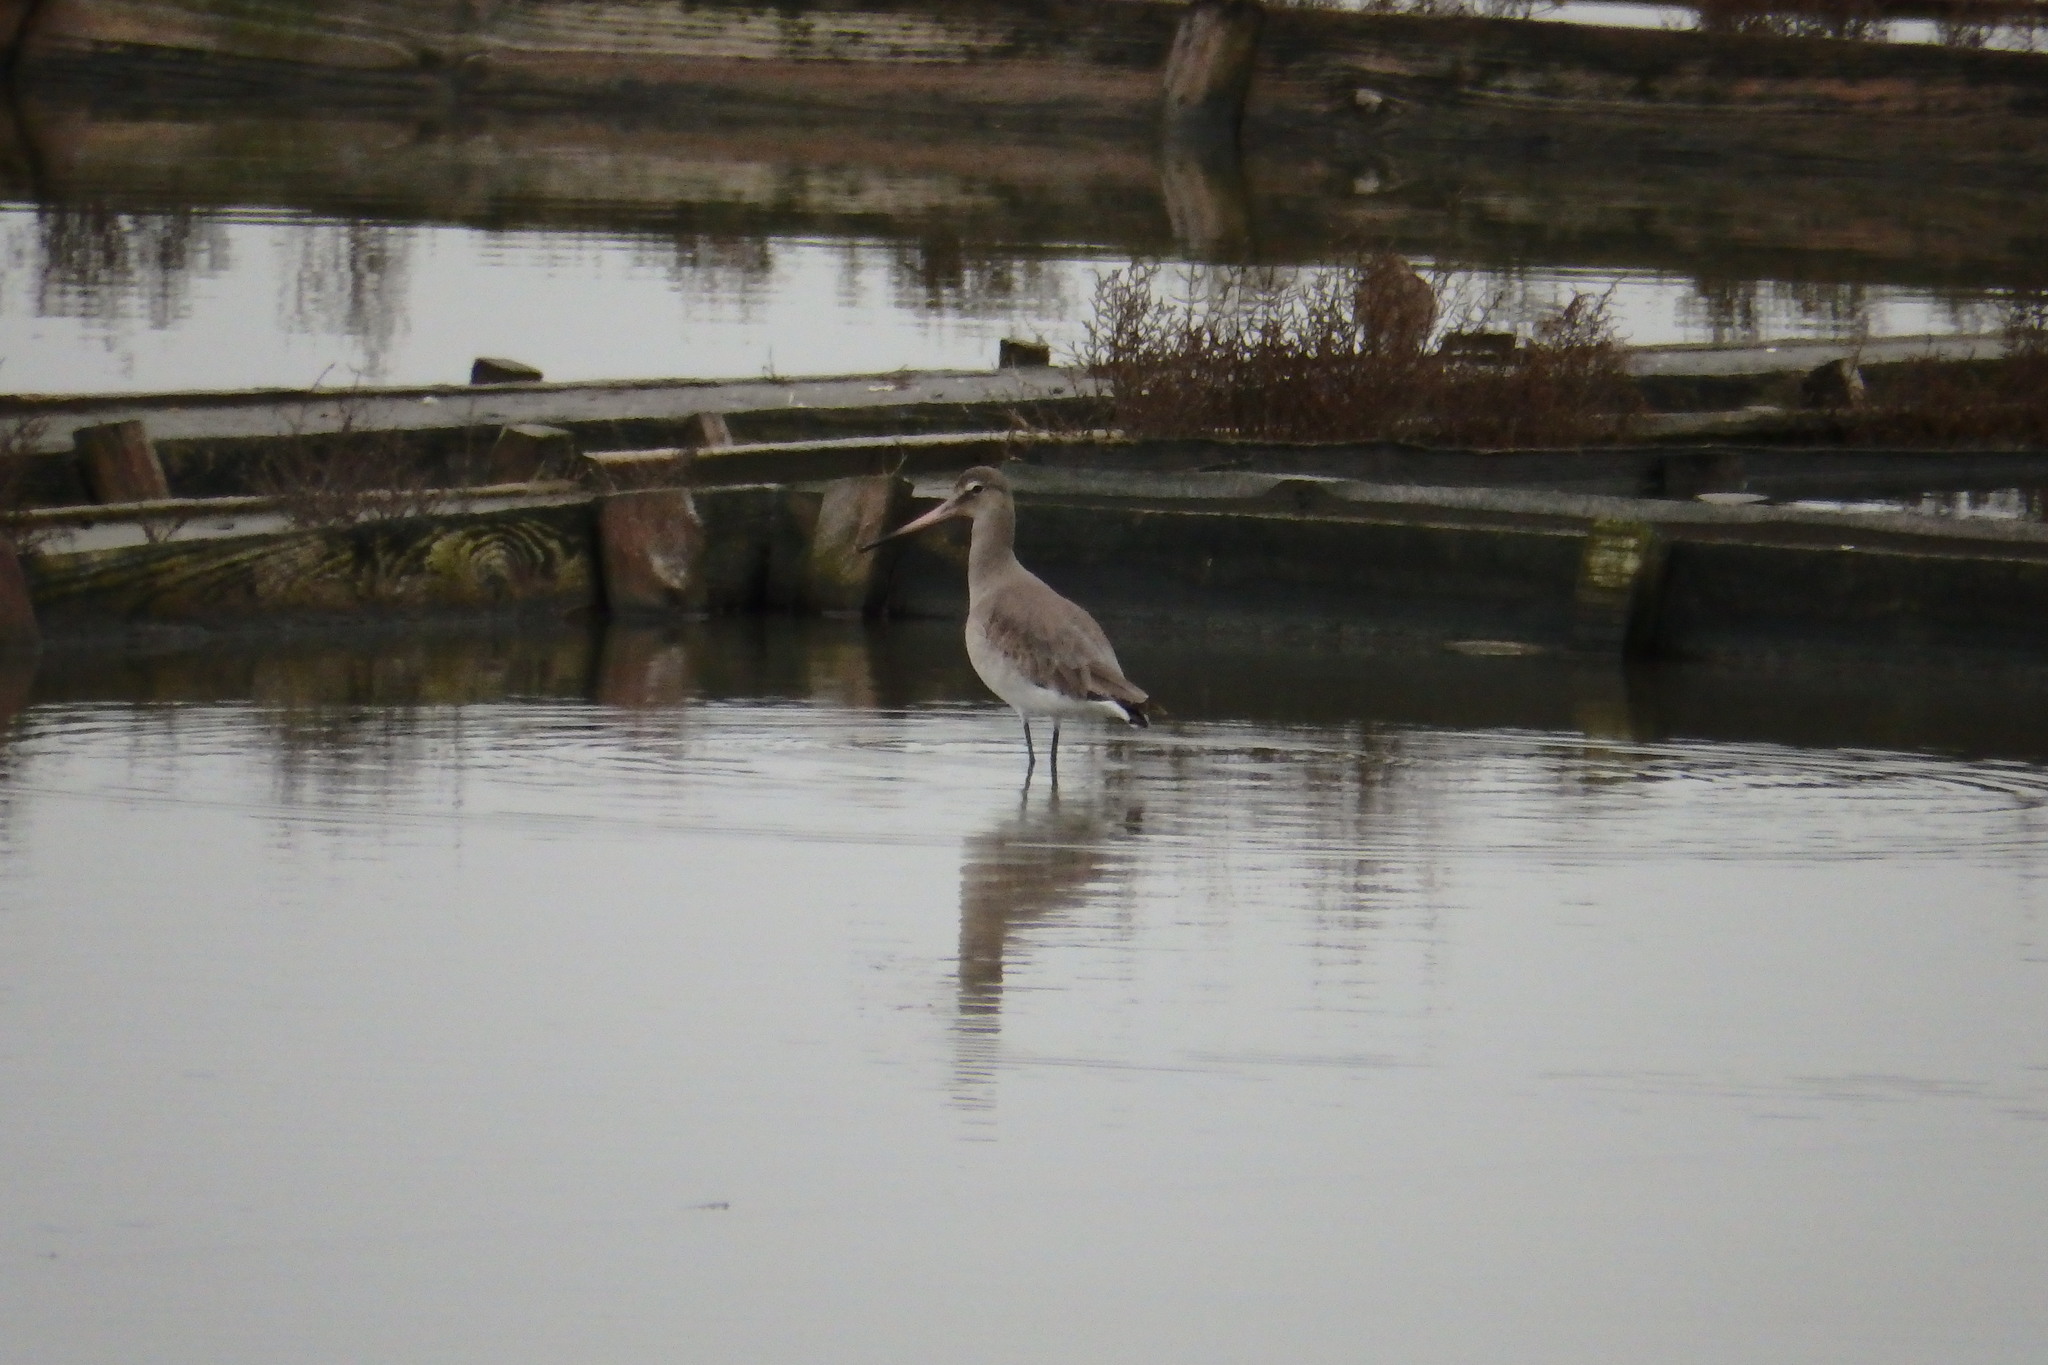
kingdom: Animalia
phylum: Chordata
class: Aves
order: Charadriiformes
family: Scolopacidae
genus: Limosa
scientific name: Limosa limosa
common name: Black-tailed godwit
